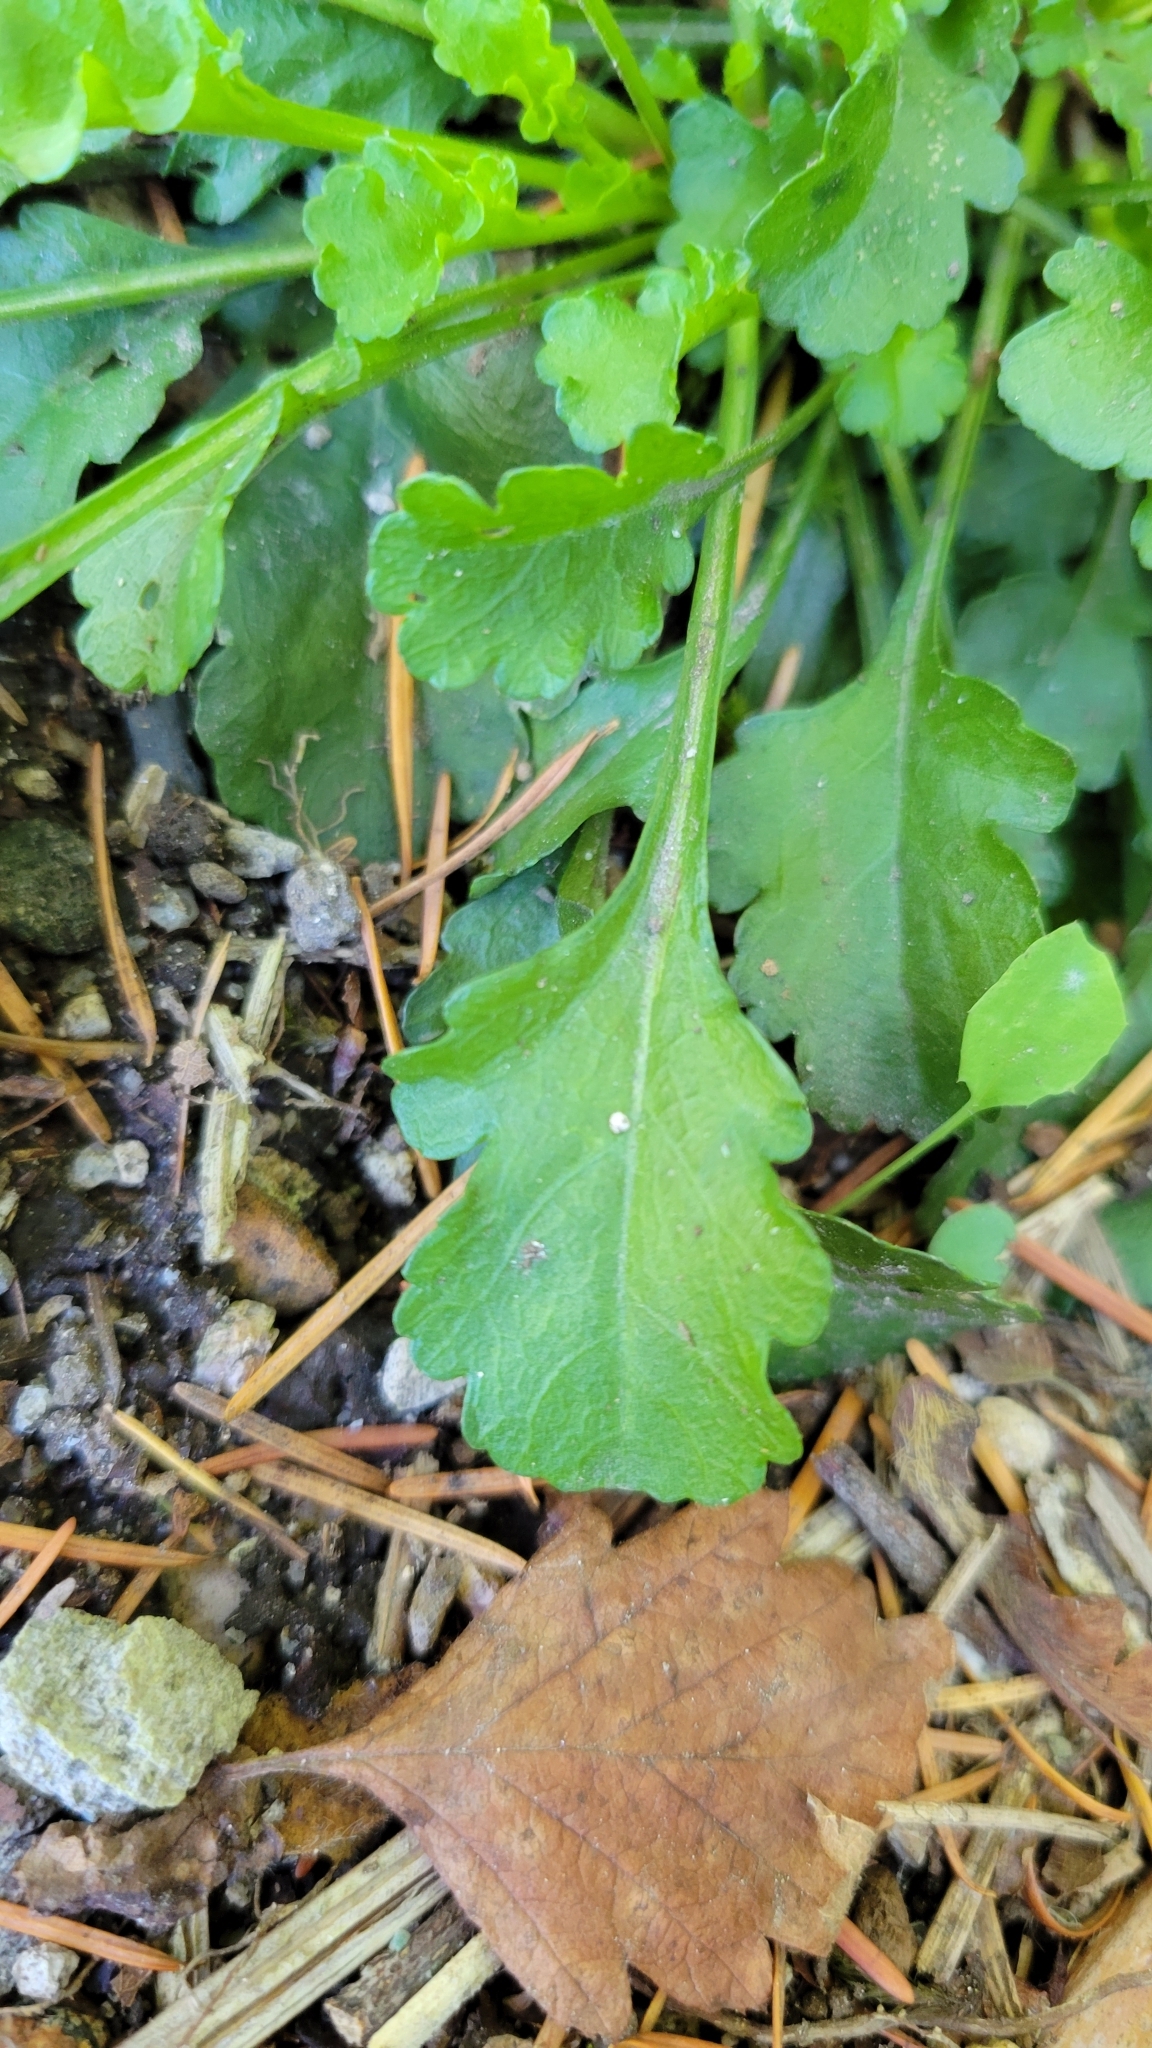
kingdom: Plantae
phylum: Tracheophyta
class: Magnoliopsida
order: Asterales
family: Asteraceae
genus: Leucanthemum
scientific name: Leucanthemum vulgare
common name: Oxeye daisy
